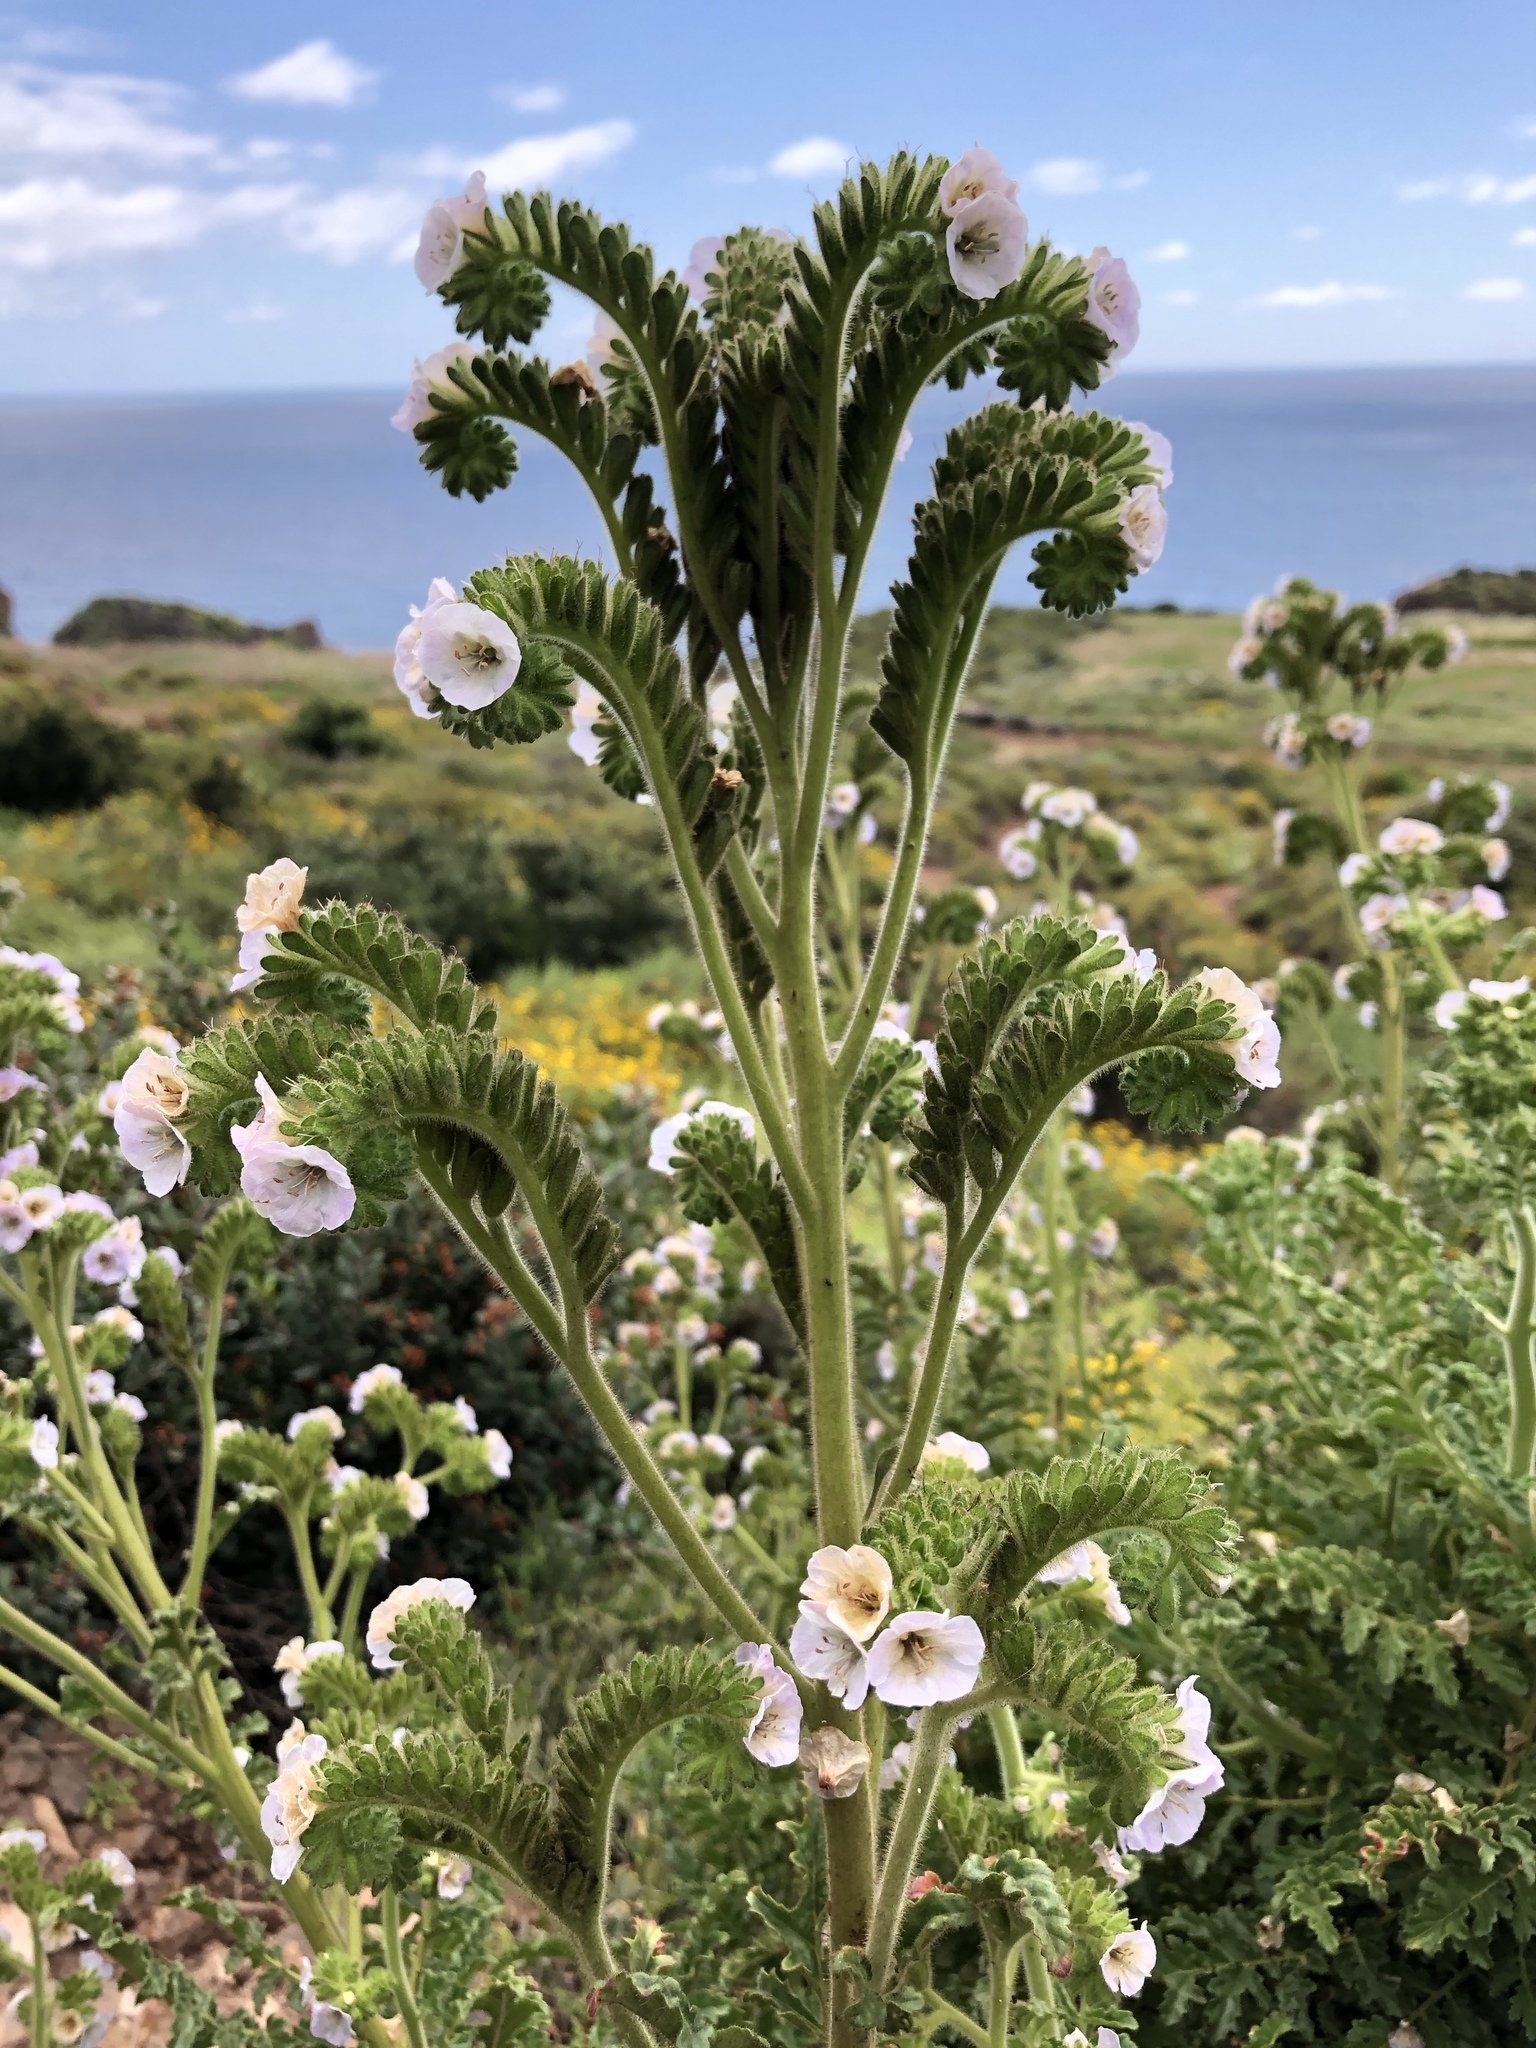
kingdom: Plantae
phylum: Tracheophyta
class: Magnoliopsida
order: Boraginales
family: Hydrophyllaceae
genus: Phacelia
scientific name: Phacelia ixodes
